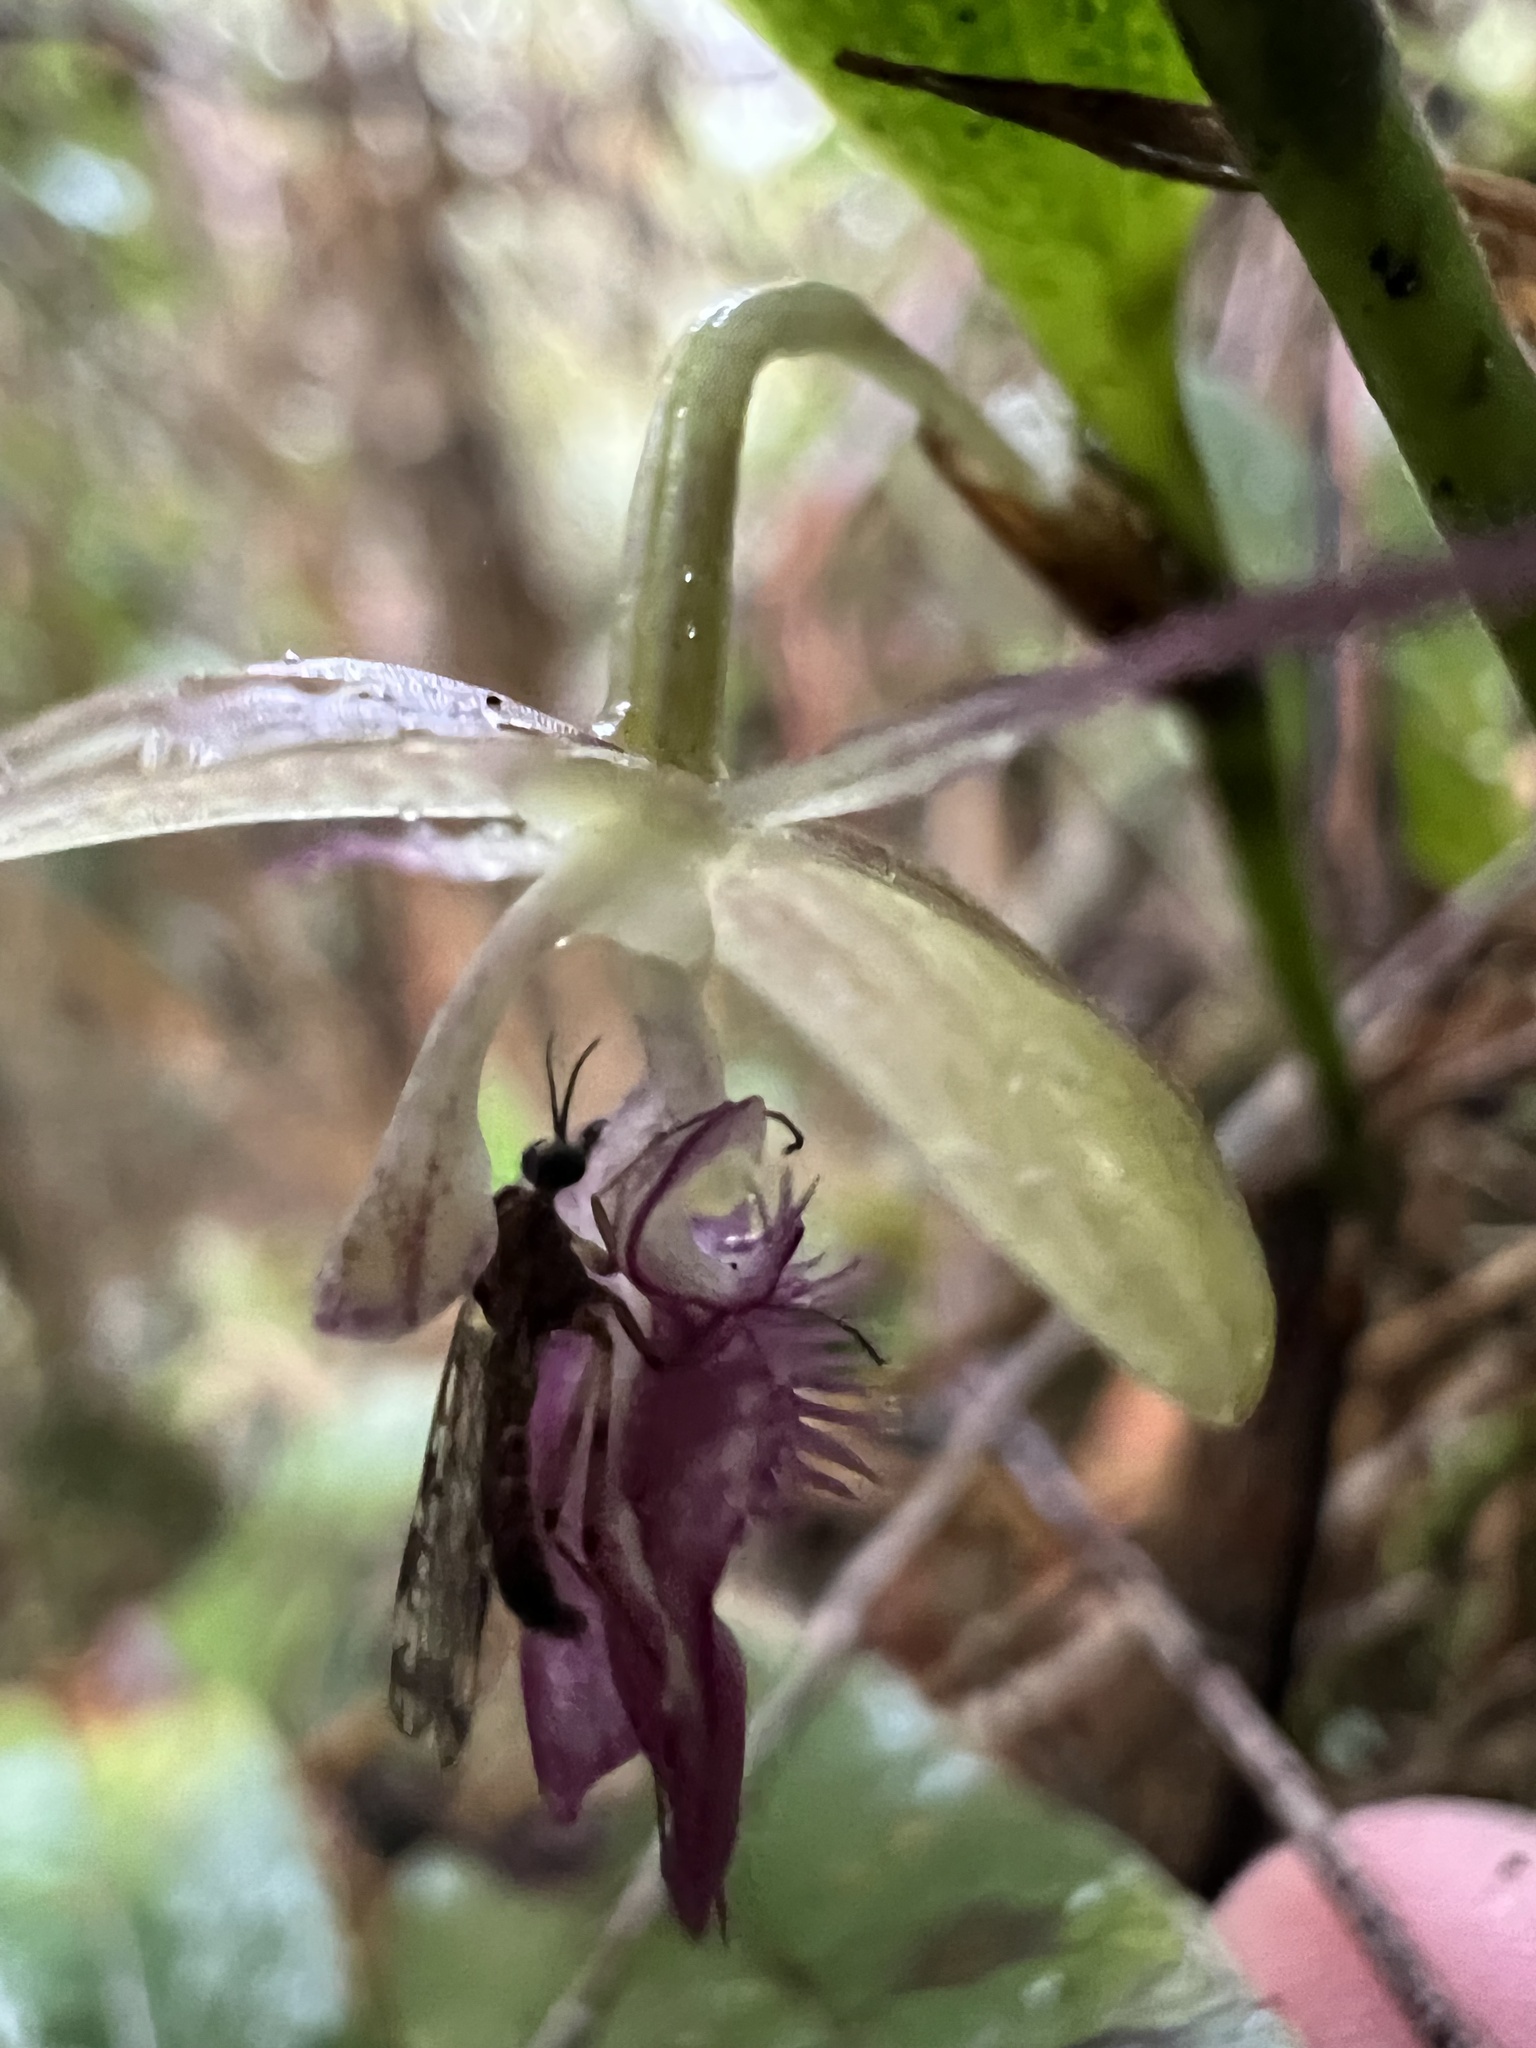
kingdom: Plantae
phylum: Tracheophyta
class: Liliopsida
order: Asparagales
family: Orchidaceae
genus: Pleurothallis
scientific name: Pleurothallis talpinaria
